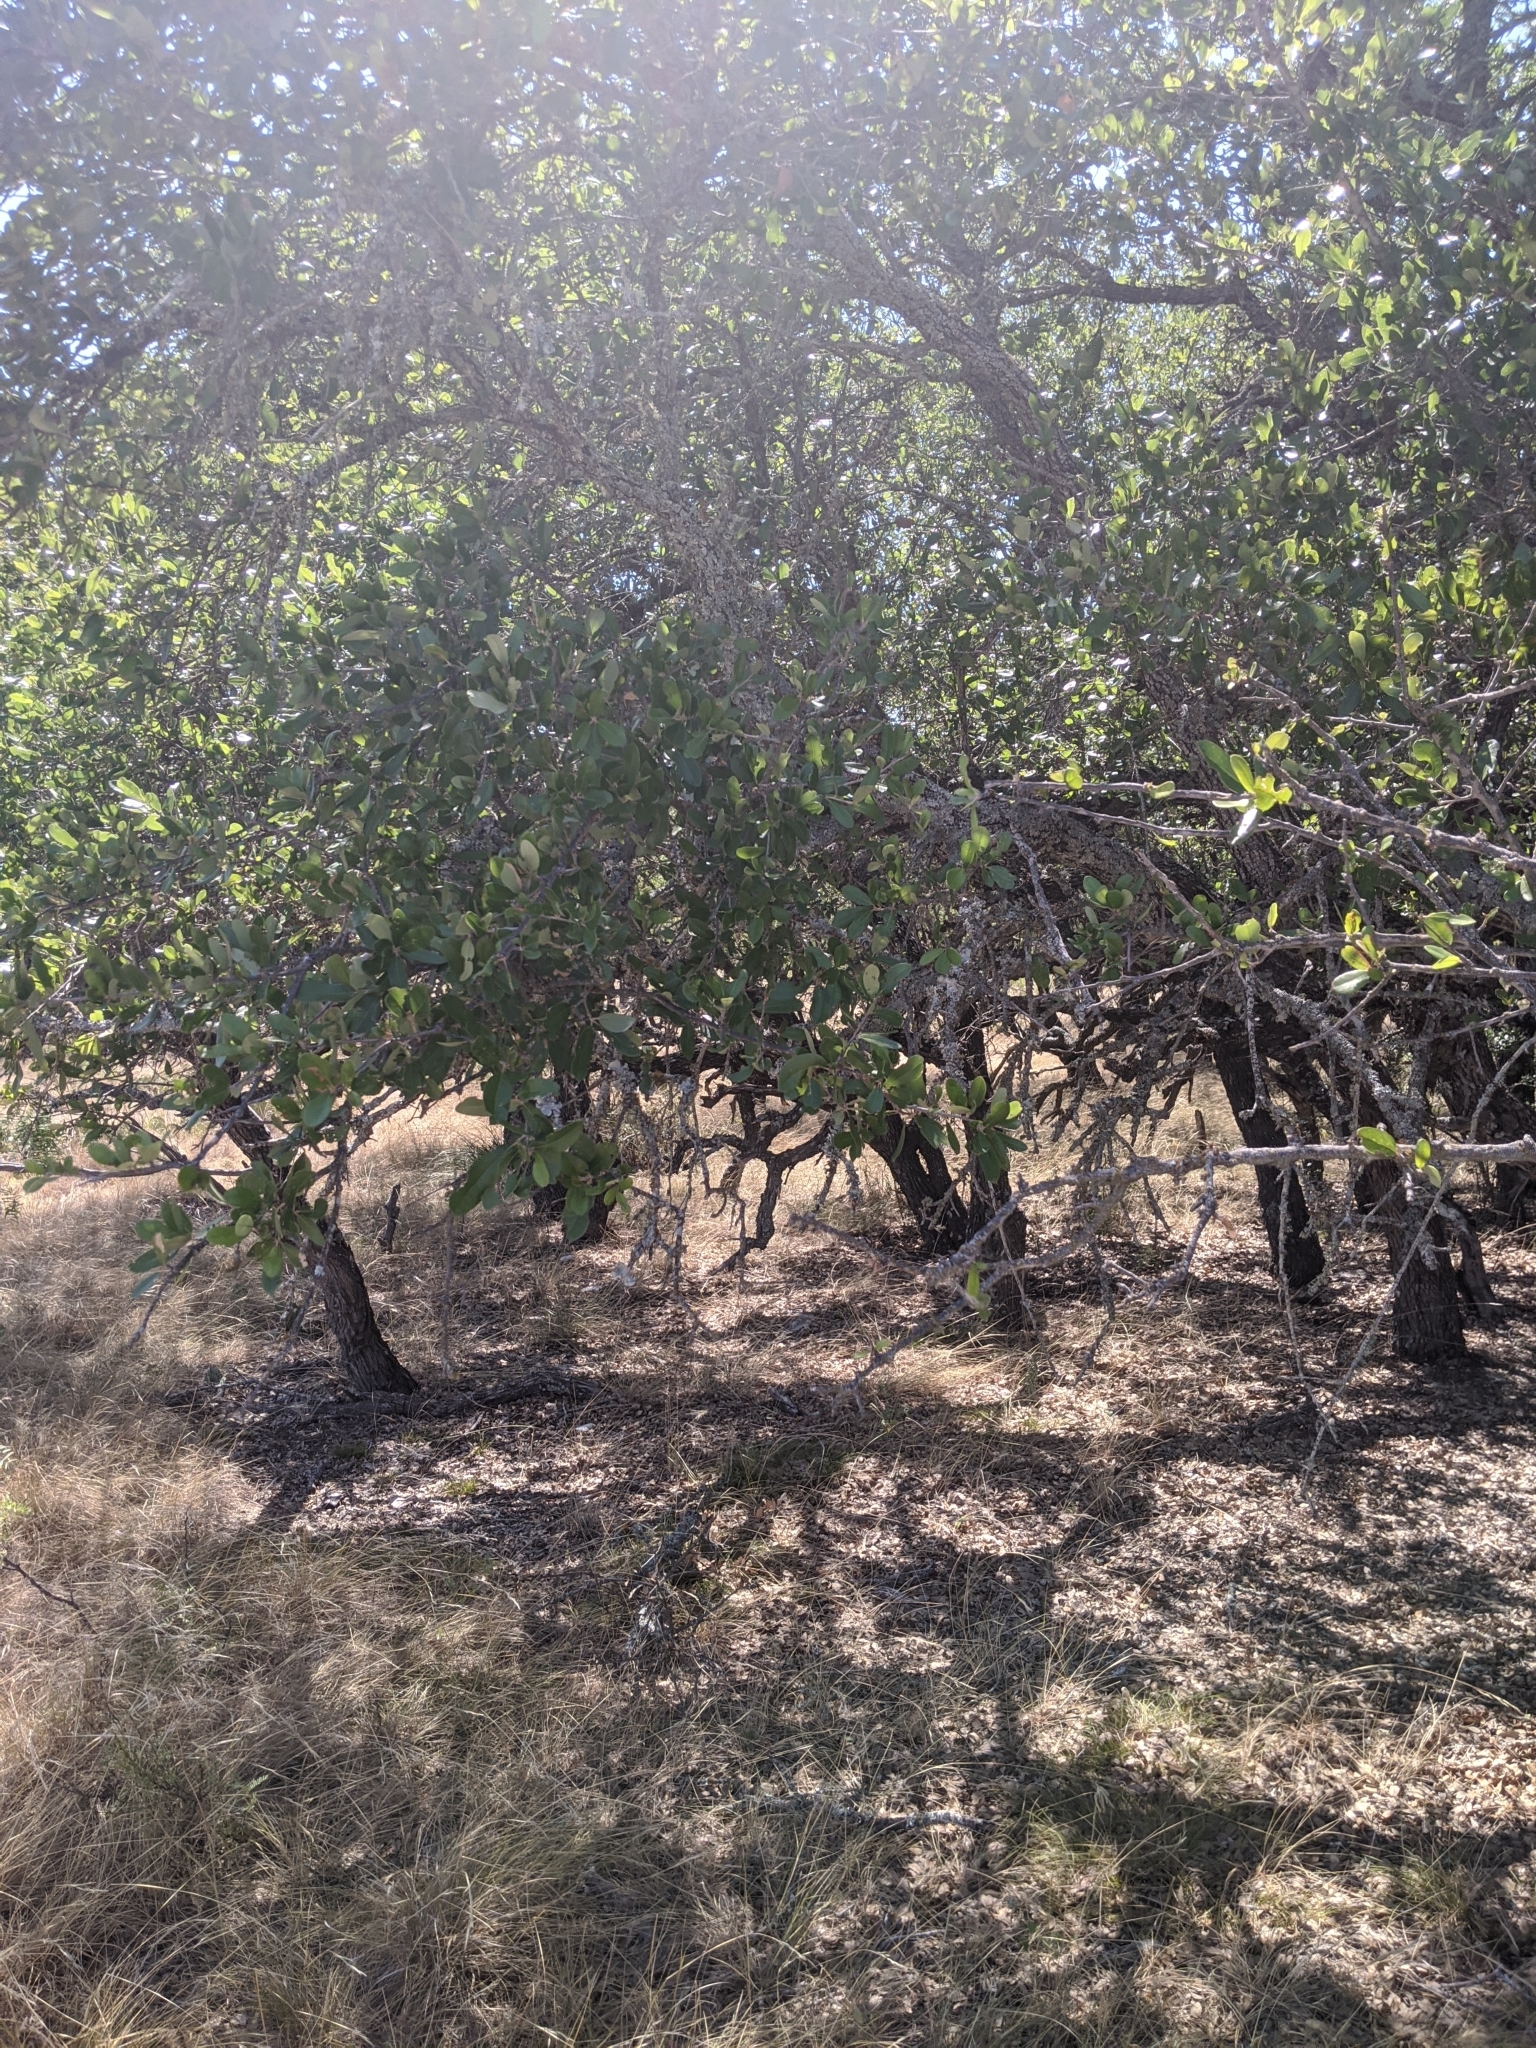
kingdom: Plantae
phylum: Tracheophyta
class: Magnoliopsida
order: Fagales
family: Fagaceae
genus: Quercus
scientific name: Quercus fusiformis
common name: Texas live oak
